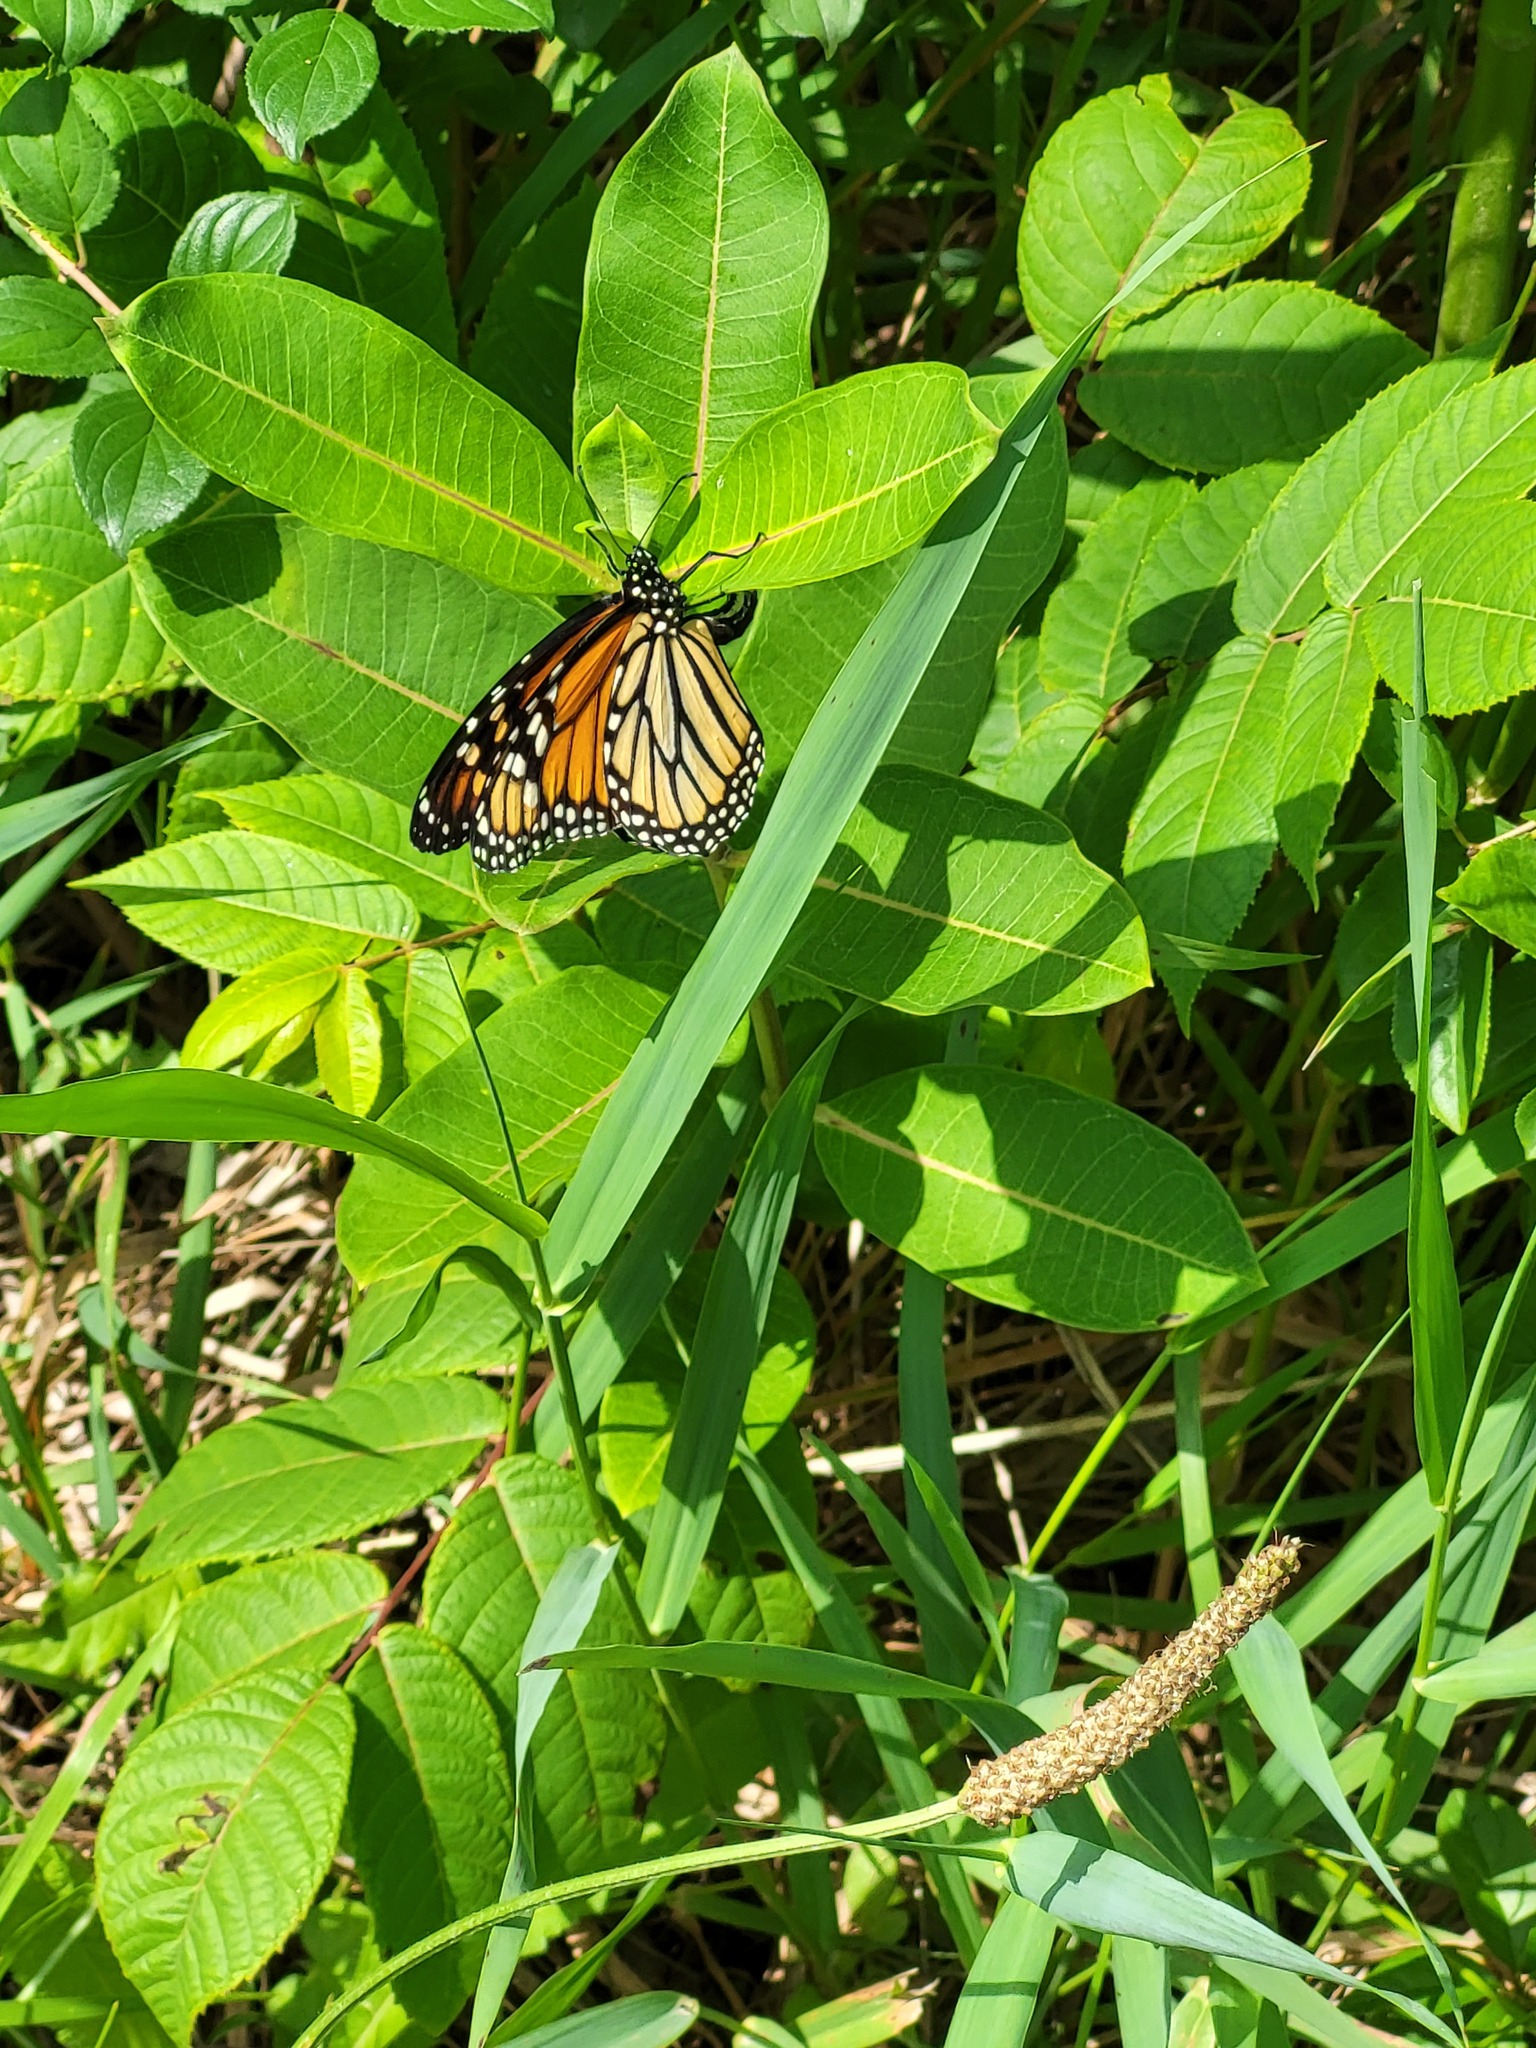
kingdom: Animalia
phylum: Arthropoda
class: Insecta
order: Lepidoptera
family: Nymphalidae
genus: Danaus
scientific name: Danaus plexippus
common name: Monarch
